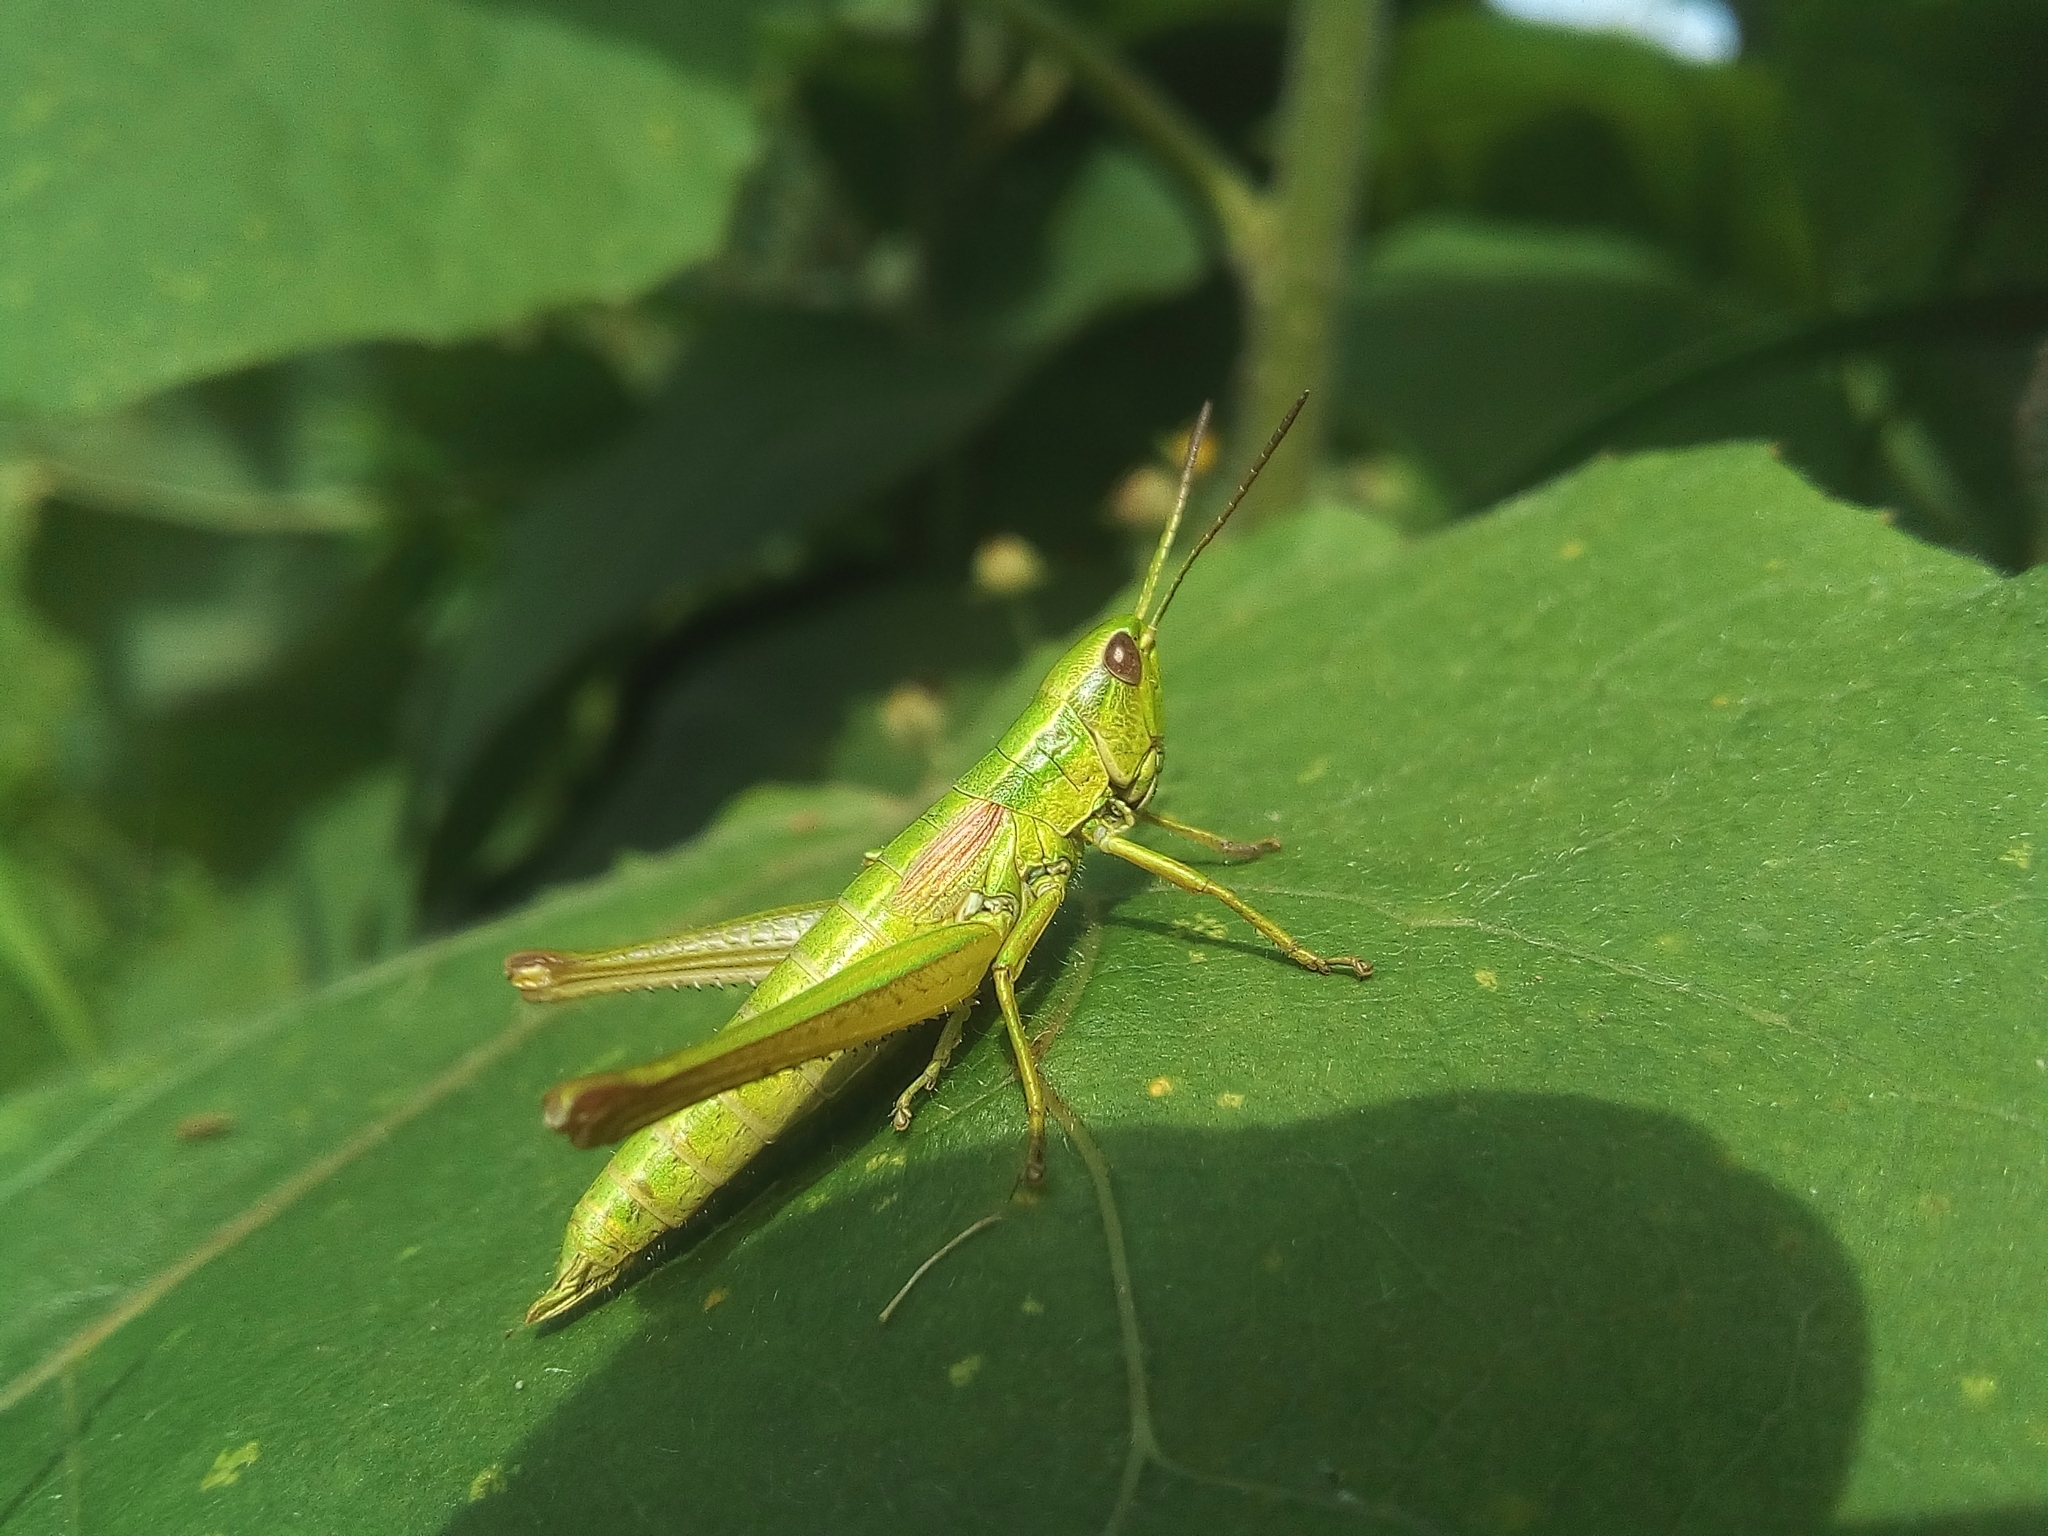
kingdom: Animalia
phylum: Arthropoda
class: Insecta
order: Orthoptera
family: Acrididae
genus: Euthystira
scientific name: Euthystira brachyptera
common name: Small gold grasshopper
